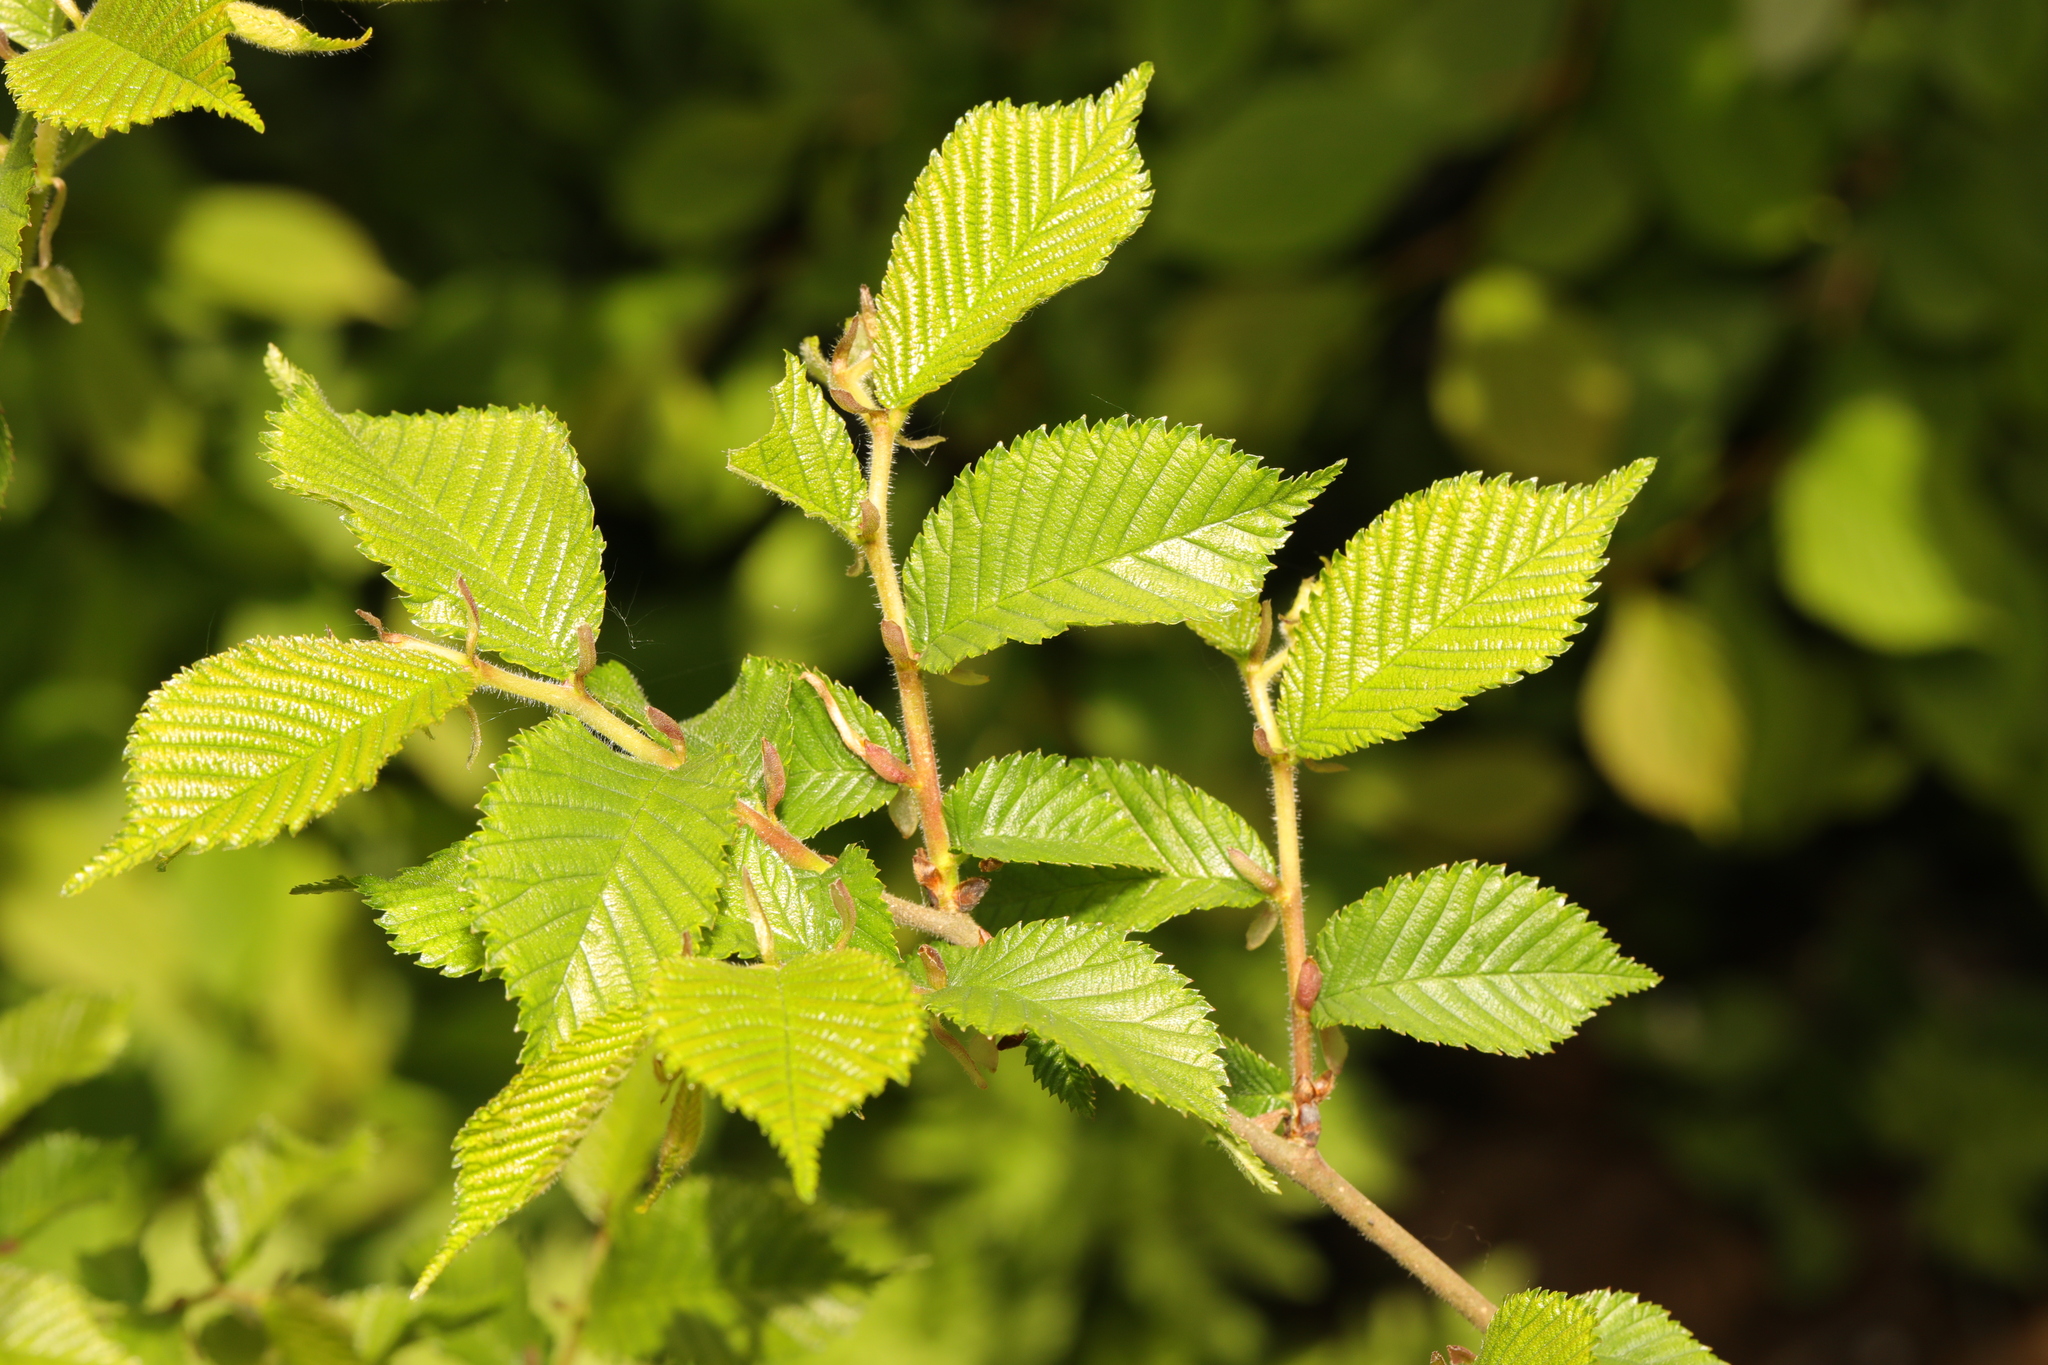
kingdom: Plantae
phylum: Tracheophyta
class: Magnoliopsida
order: Rosales
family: Ulmaceae
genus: Ulmus
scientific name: Ulmus glabra
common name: Wych elm
